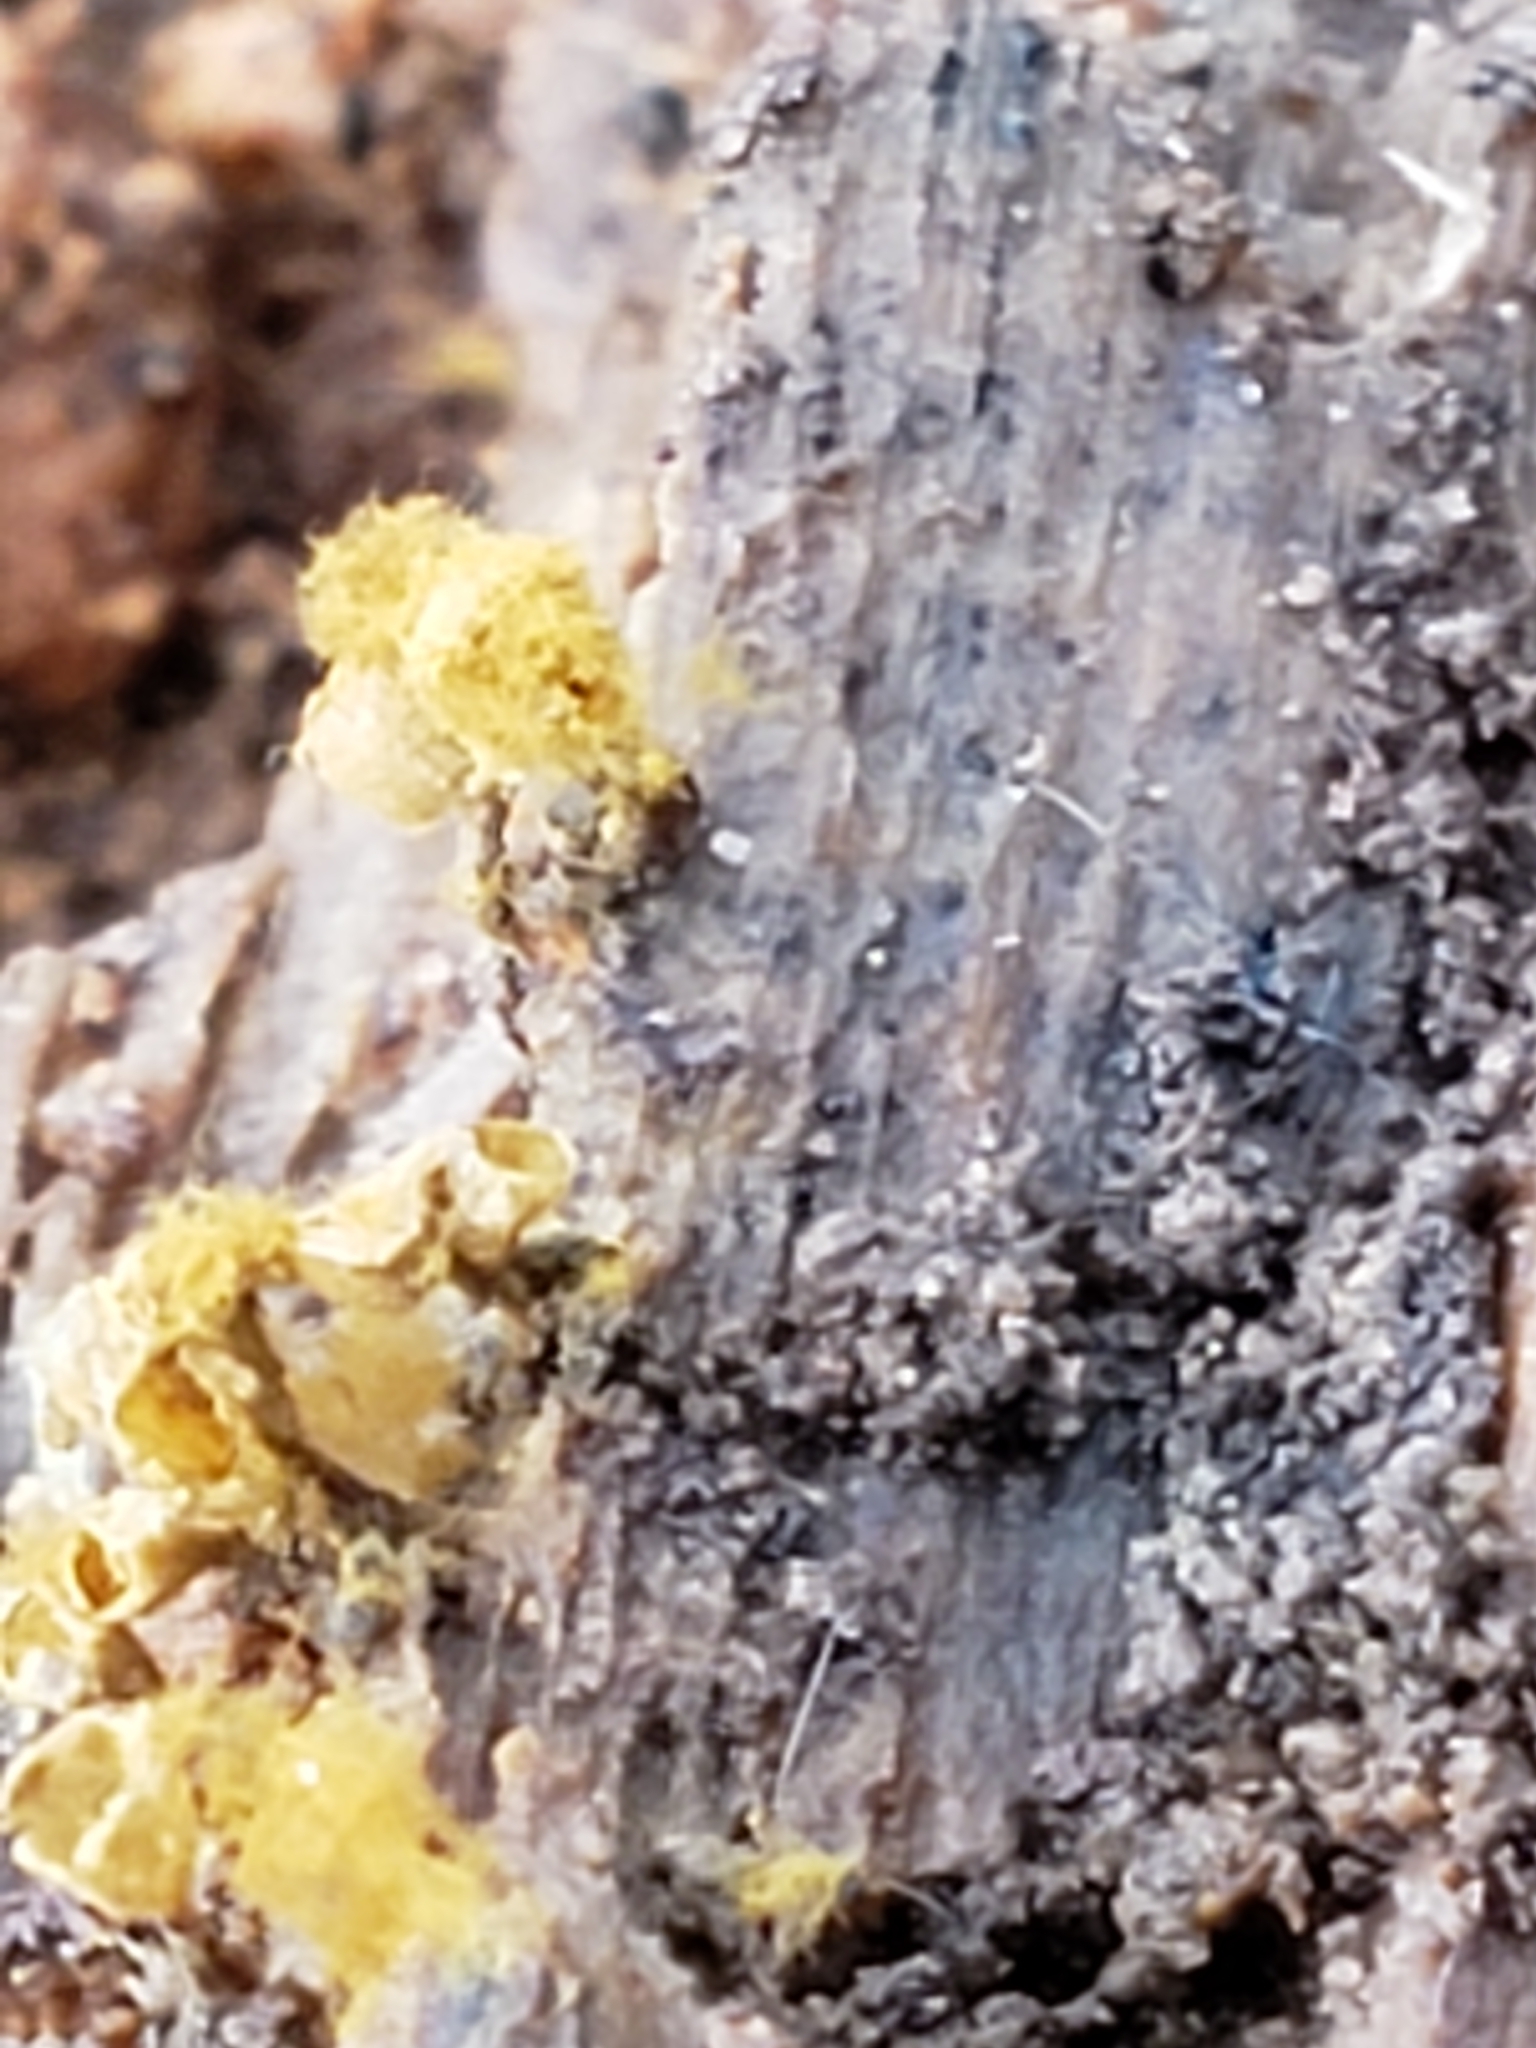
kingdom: Protozoa
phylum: Mycetozoa
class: Myxomycetes
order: Trichiales
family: Arcyriaceae
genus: Hemitrichia
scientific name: Hemitrichia calyculata
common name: Push pin slime mold
